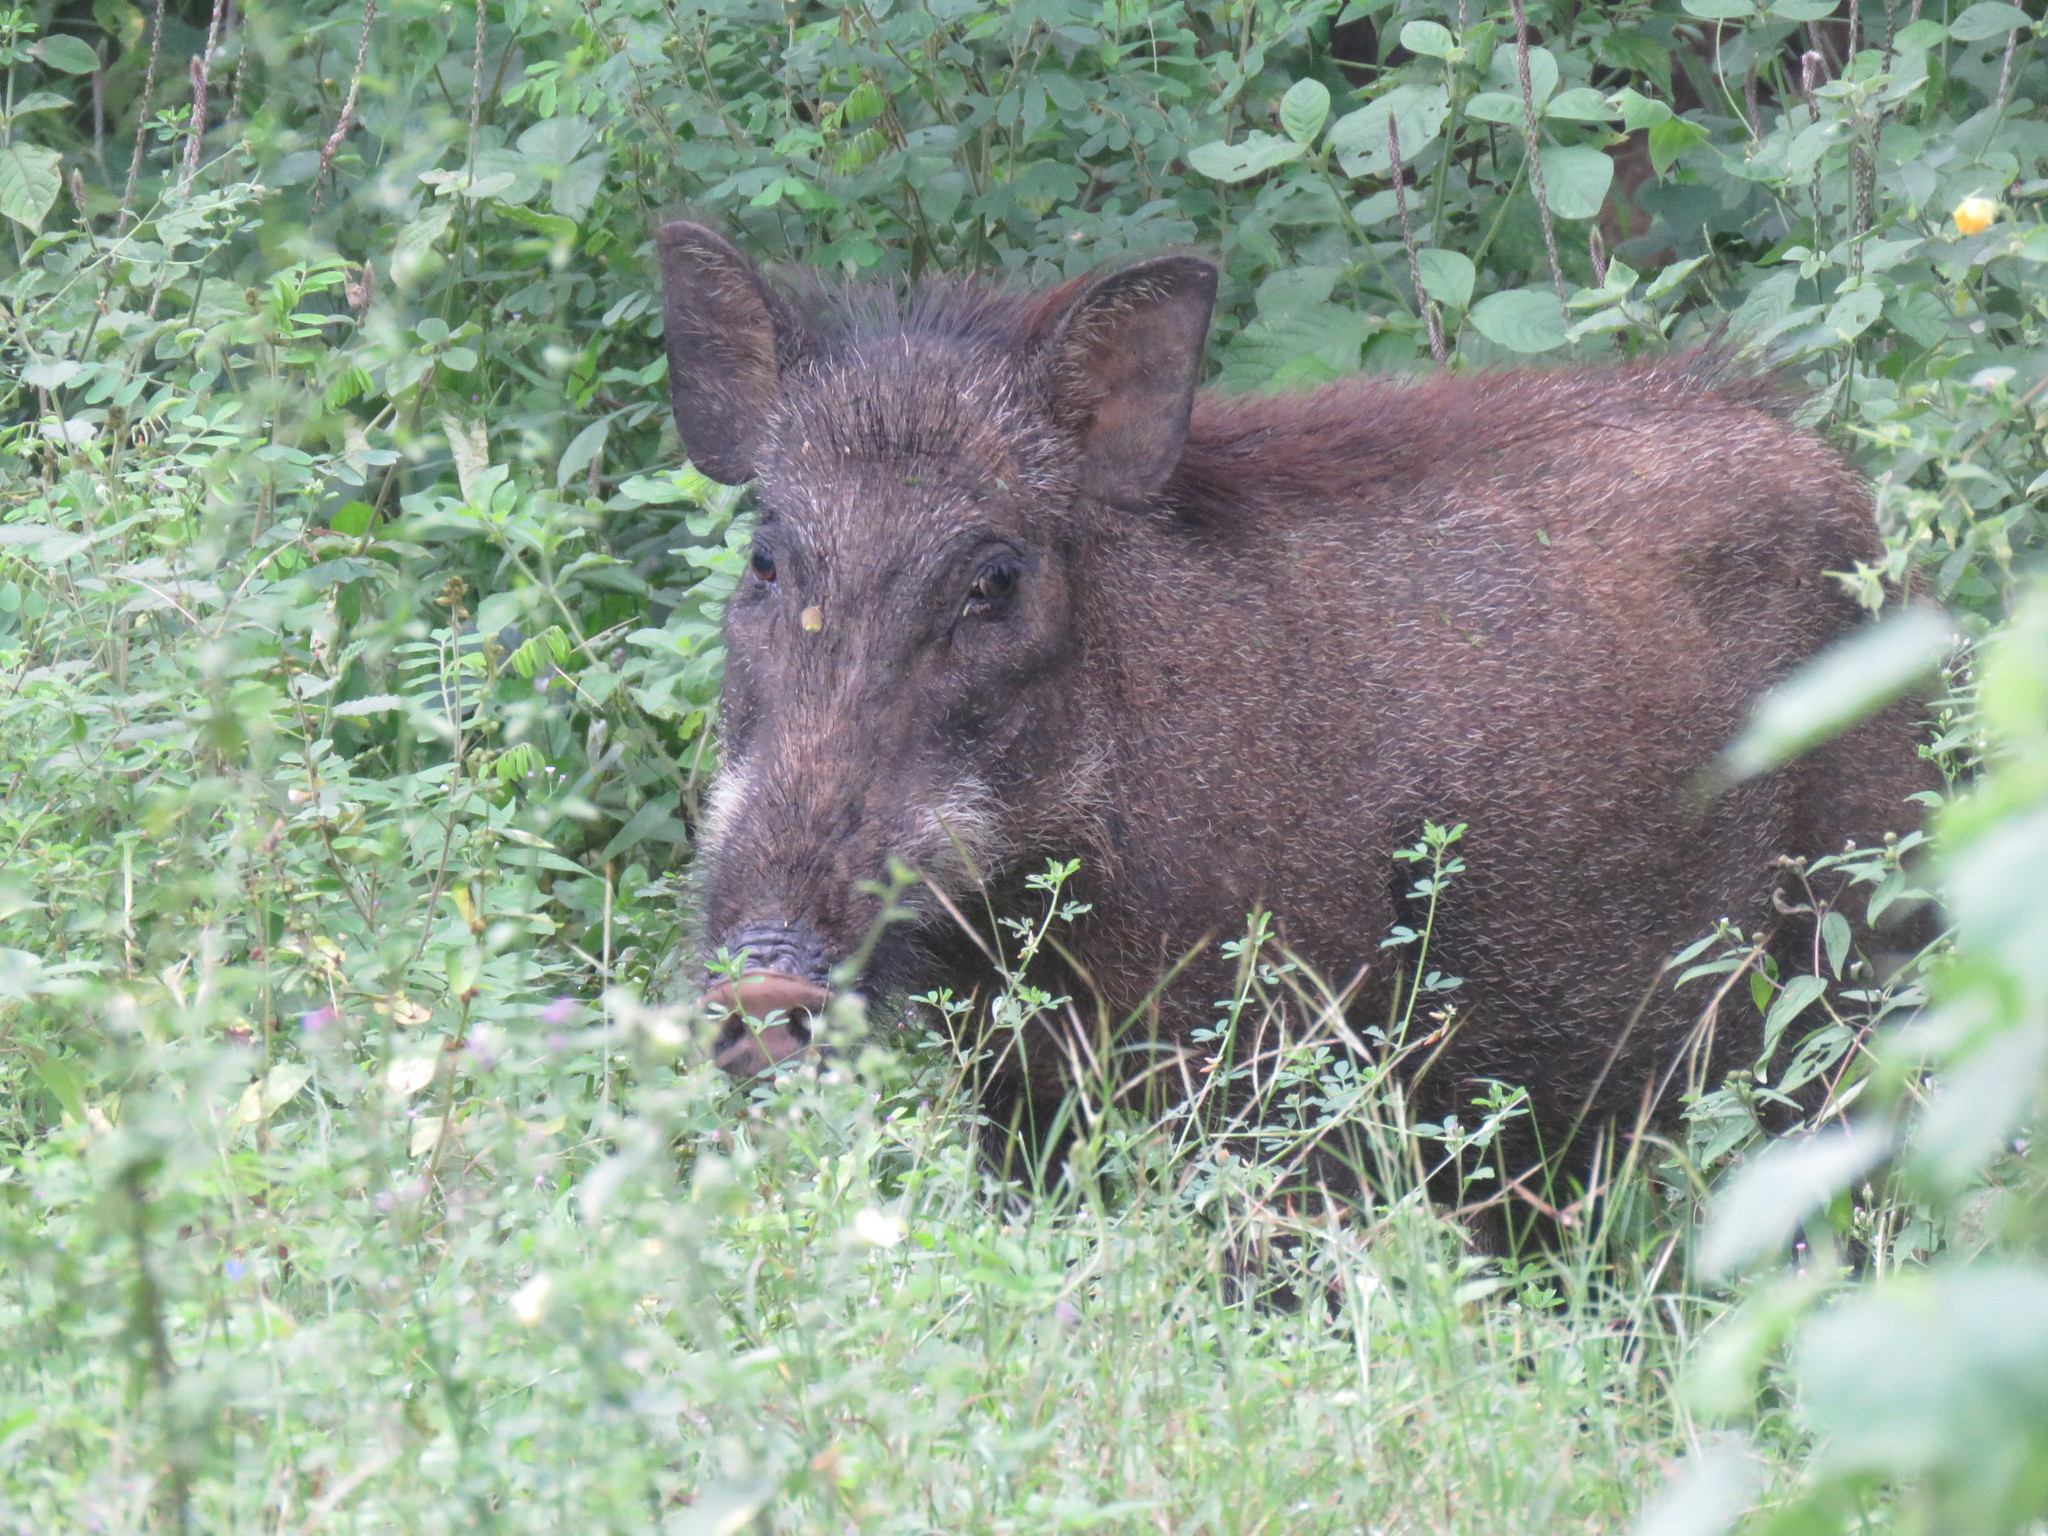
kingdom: Animalia
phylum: Chordata
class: Mammalia
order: Artiodactyla
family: Suidae
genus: Sus
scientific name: Sus scrofa
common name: Wild boar
